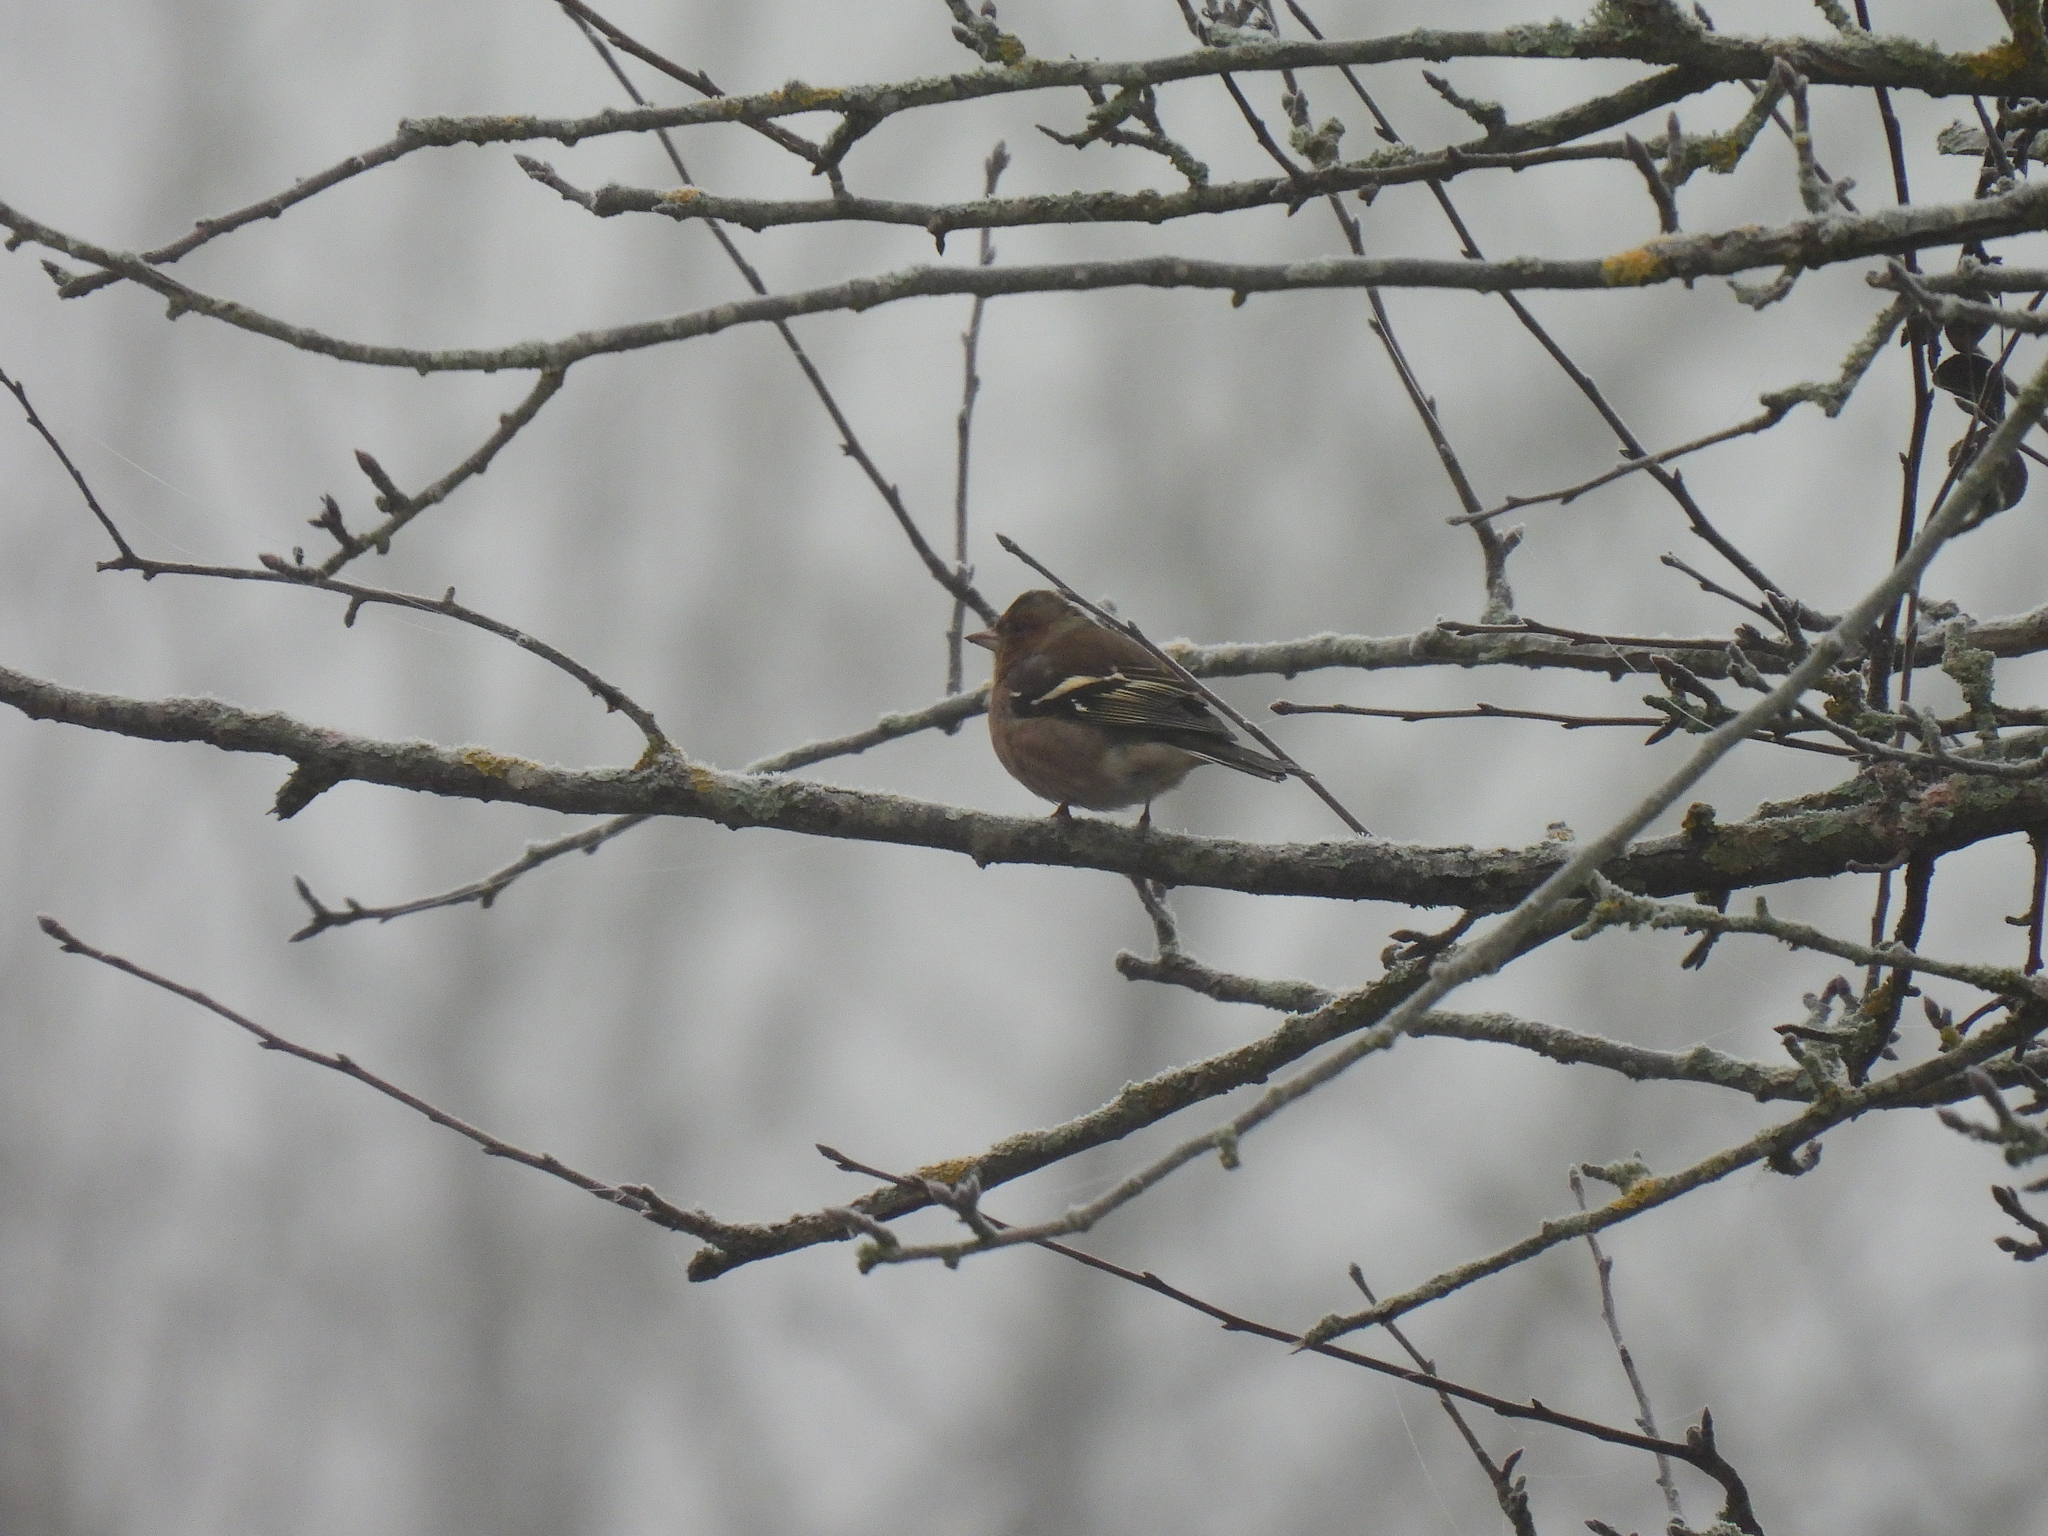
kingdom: Animalia
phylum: Chordata
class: Aves
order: Passeriformes
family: Fringillidae
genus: Fringilla
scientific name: Fringilla coelebs
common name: Common chaffinch
